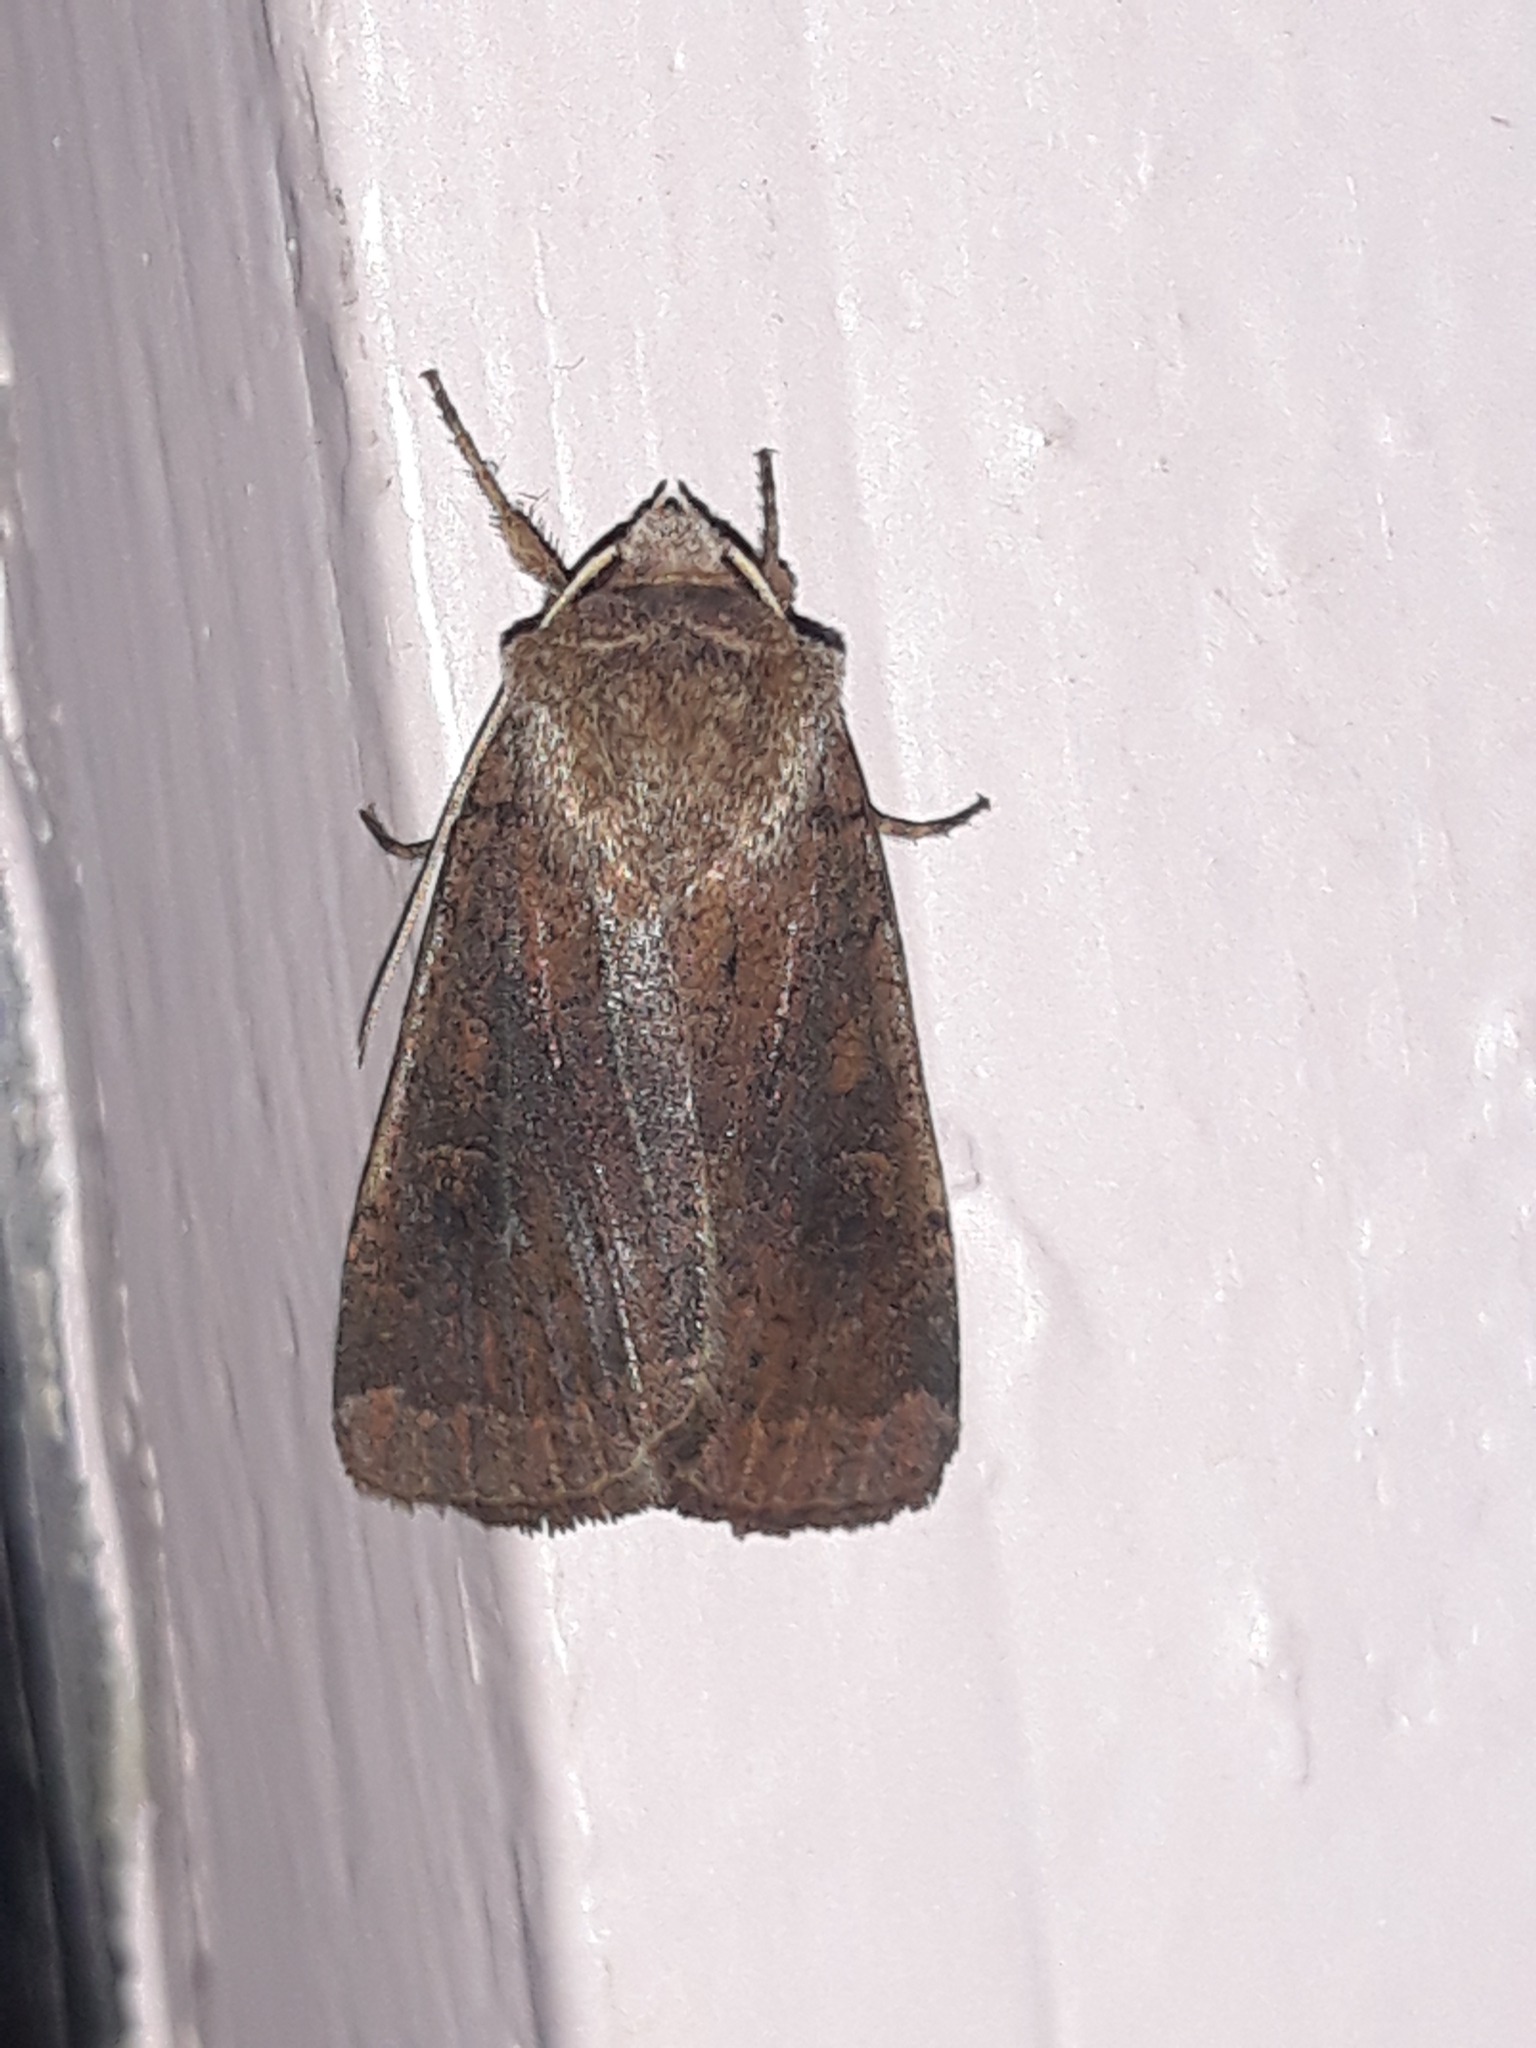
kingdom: Animalia
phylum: Arthropoda
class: Insecta
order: Lepidoptera
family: Noctuidae
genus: Xestia
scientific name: Xestia xanthographa
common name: Square-spot rustic
